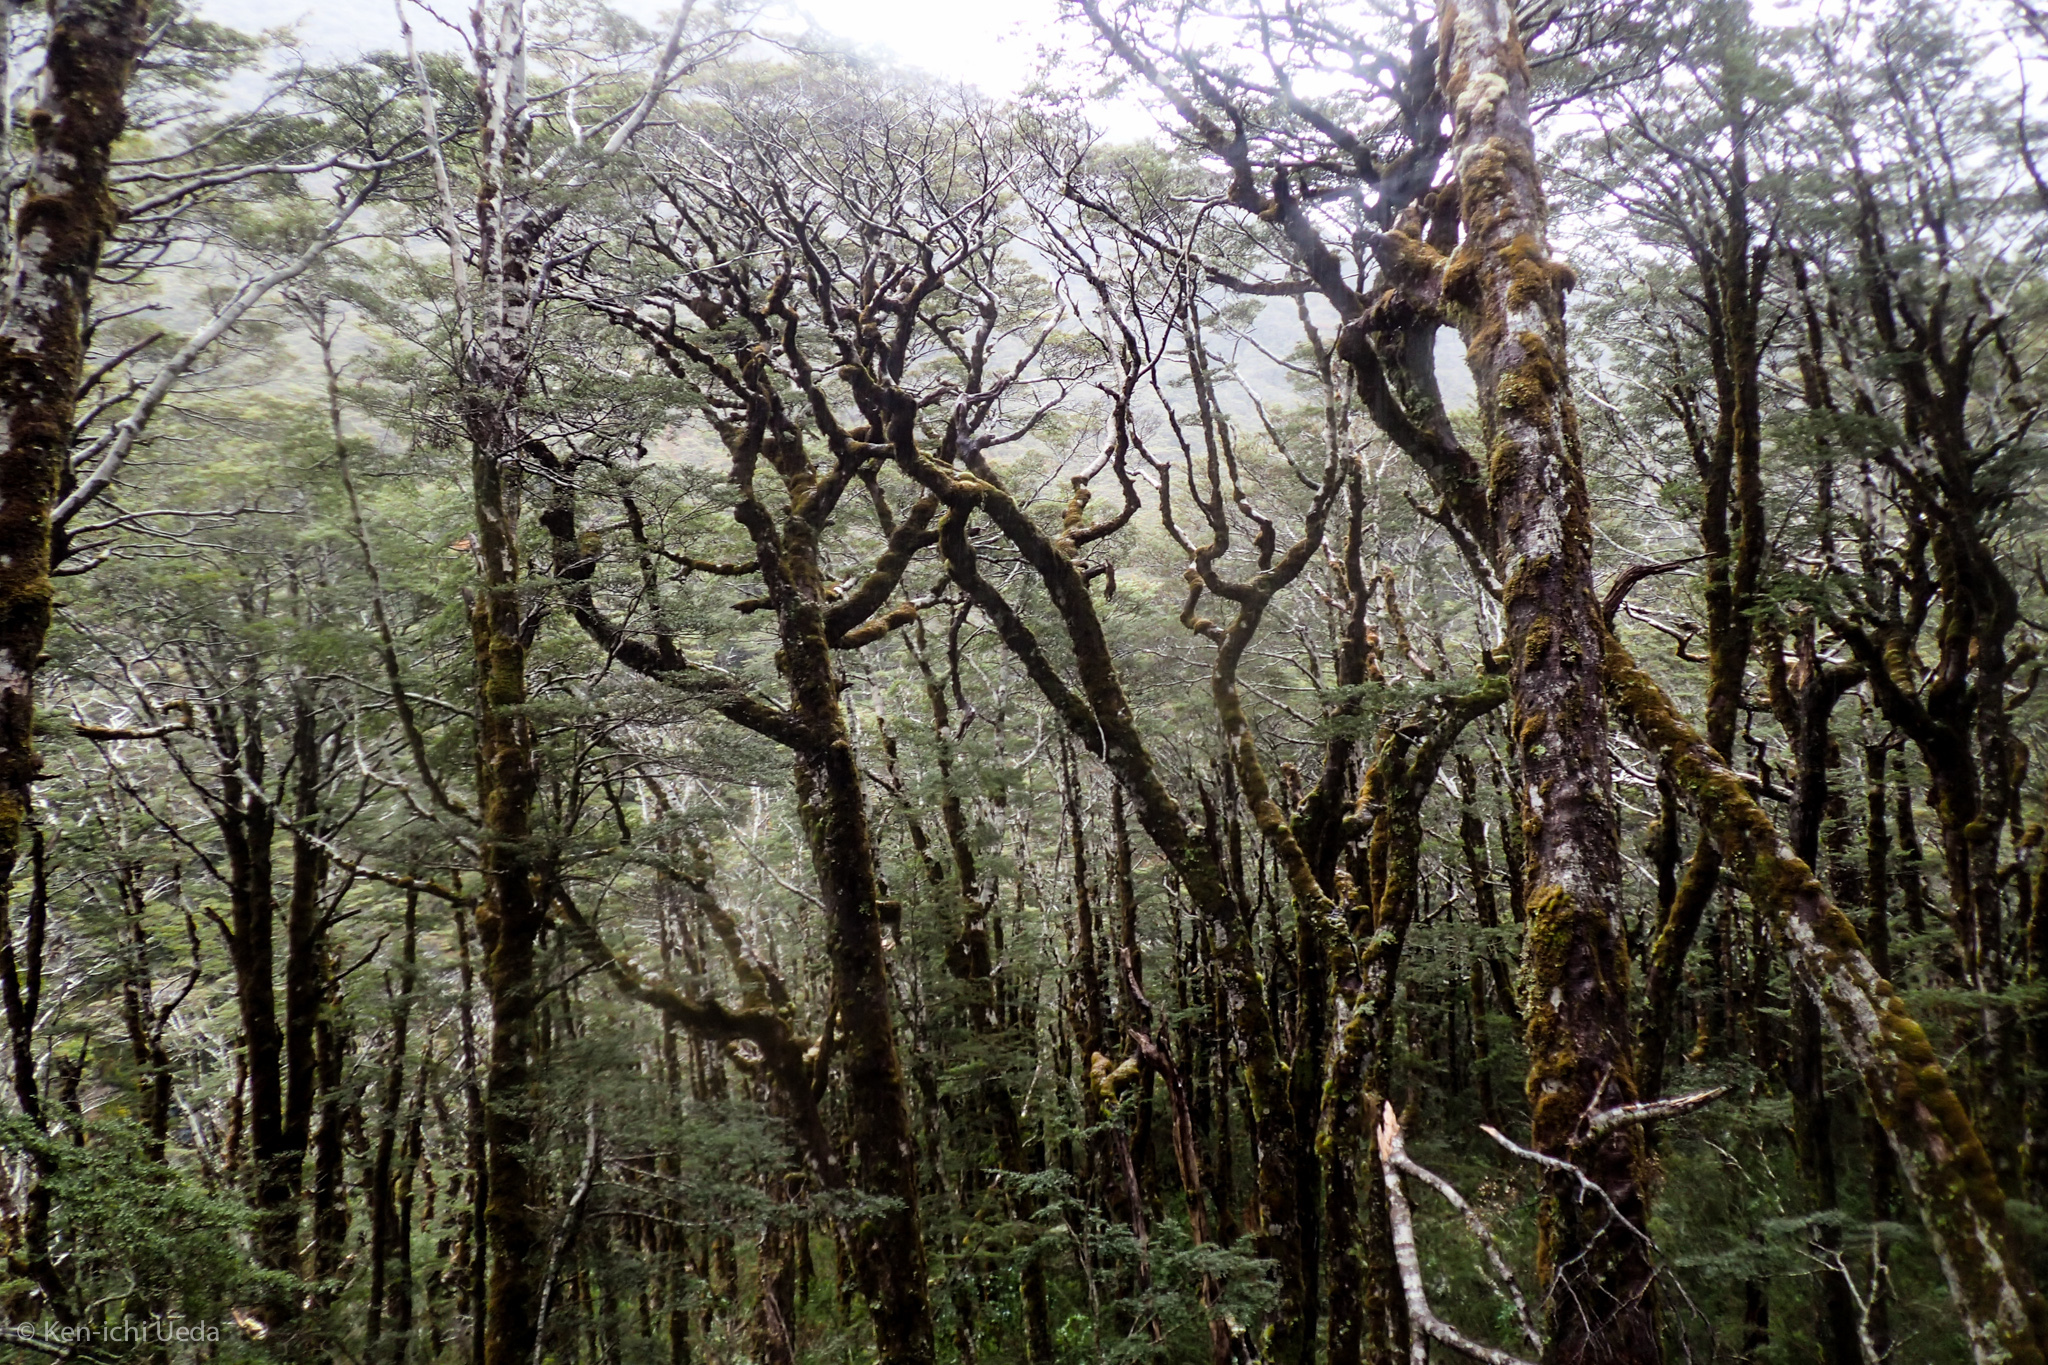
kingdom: Plantae
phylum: Tracheophyta
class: Magnoliopsida
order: Fagales
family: Nothofagaceae
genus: Nothofagus
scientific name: Nothofagus cliffortioides
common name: Mountain beech
